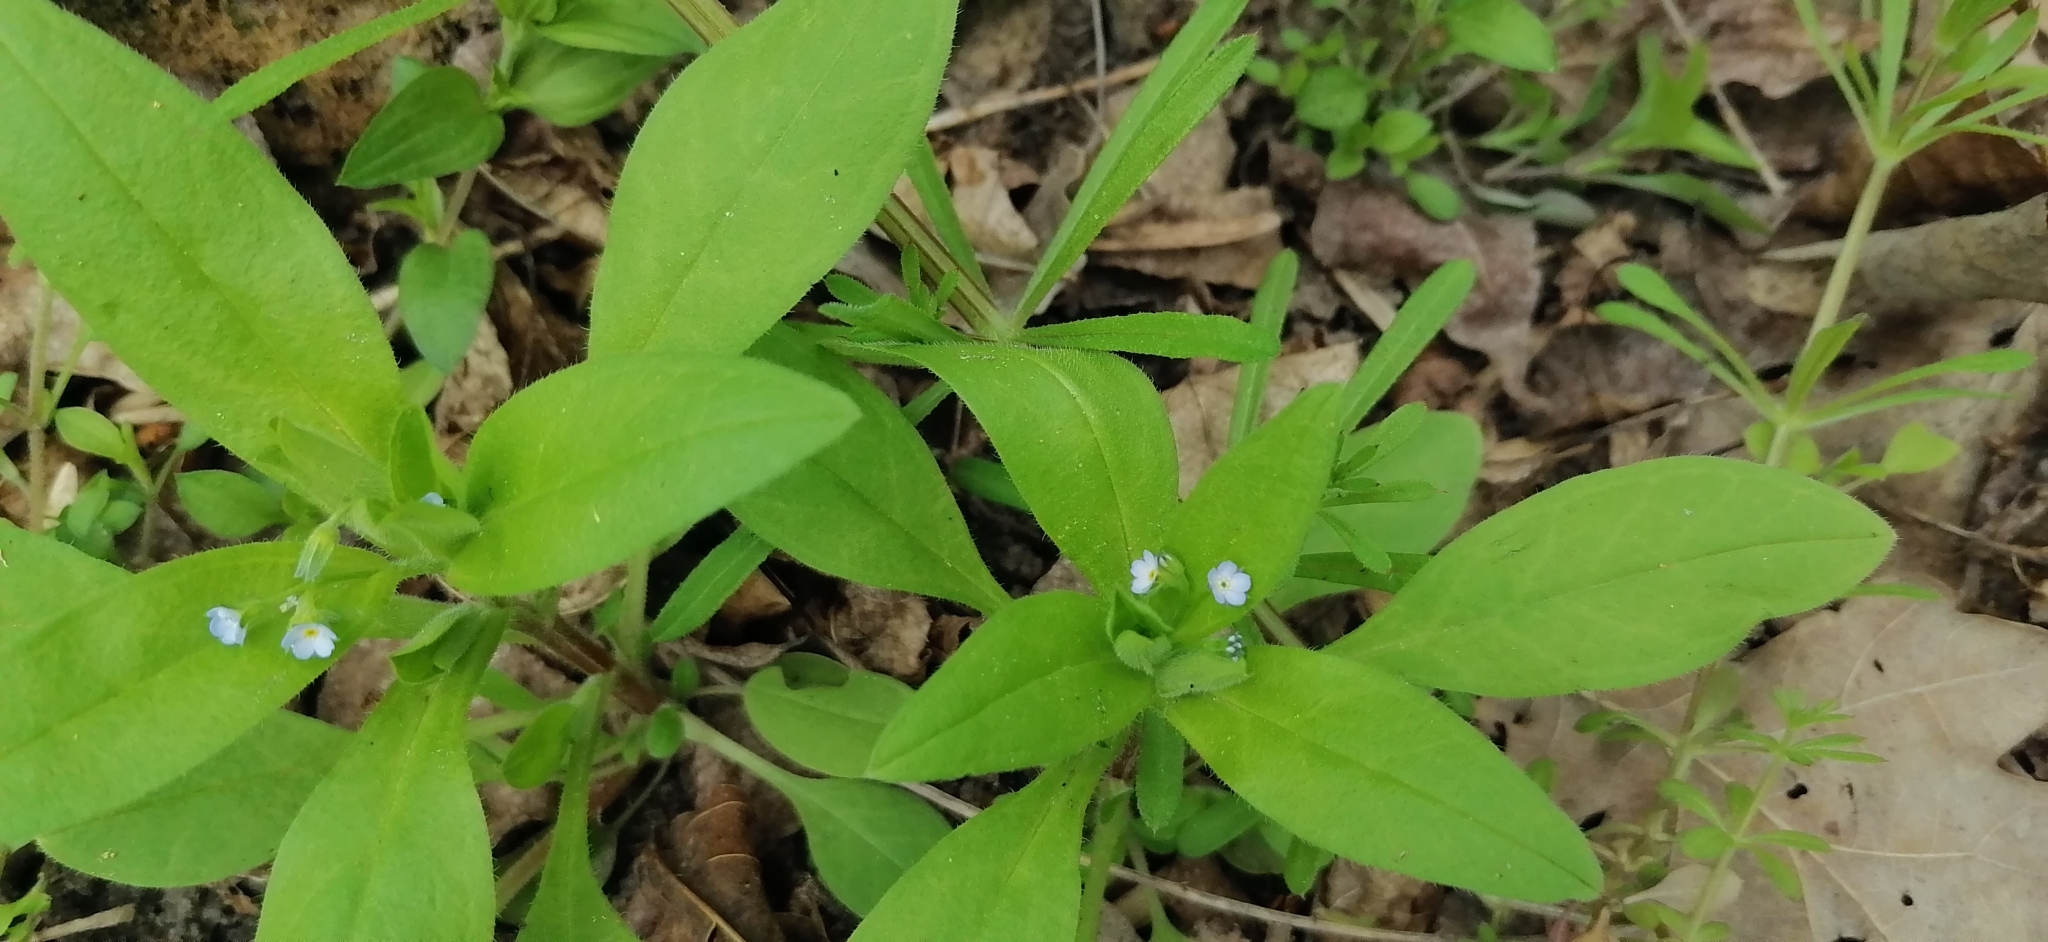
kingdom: Plantae
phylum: Tracheophyta
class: Magnoliopsida
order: Boraginales
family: Boraginaceae
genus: Myosotis
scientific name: Myosotis sparsiflora
